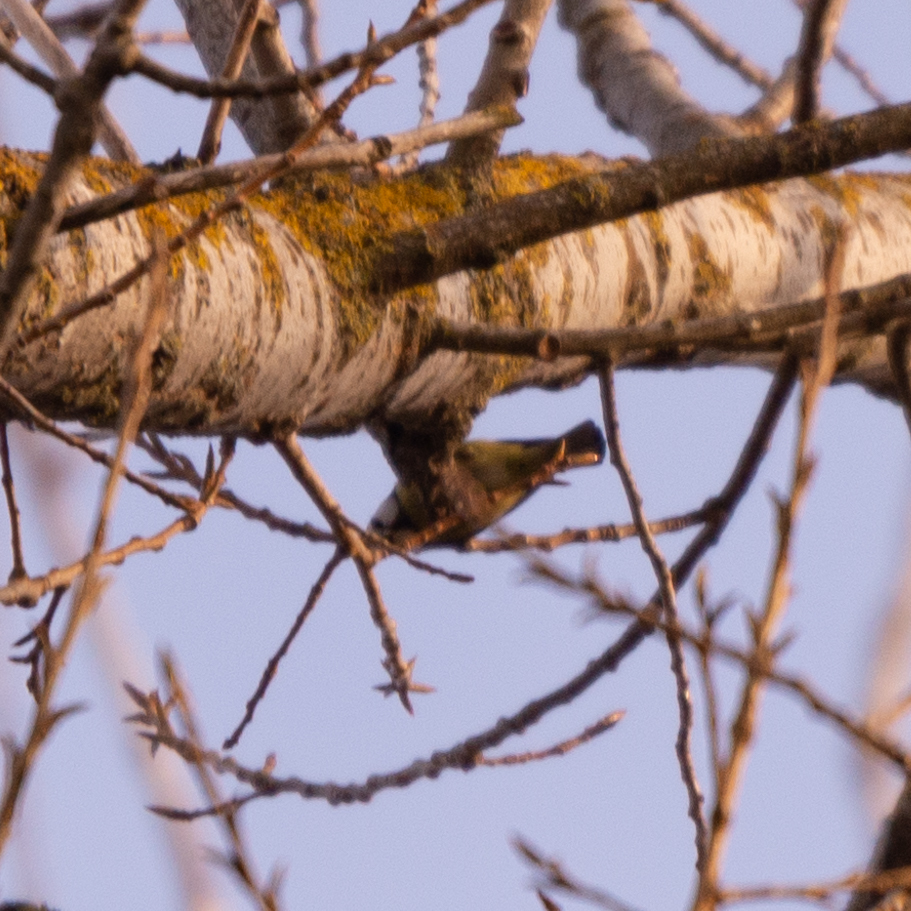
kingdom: Animalia
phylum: Chordata
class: Aves
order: Passeriformes
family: Paridae
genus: Cyanistes
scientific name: Cyanistes caeruleus
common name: Eurasian blue tit
